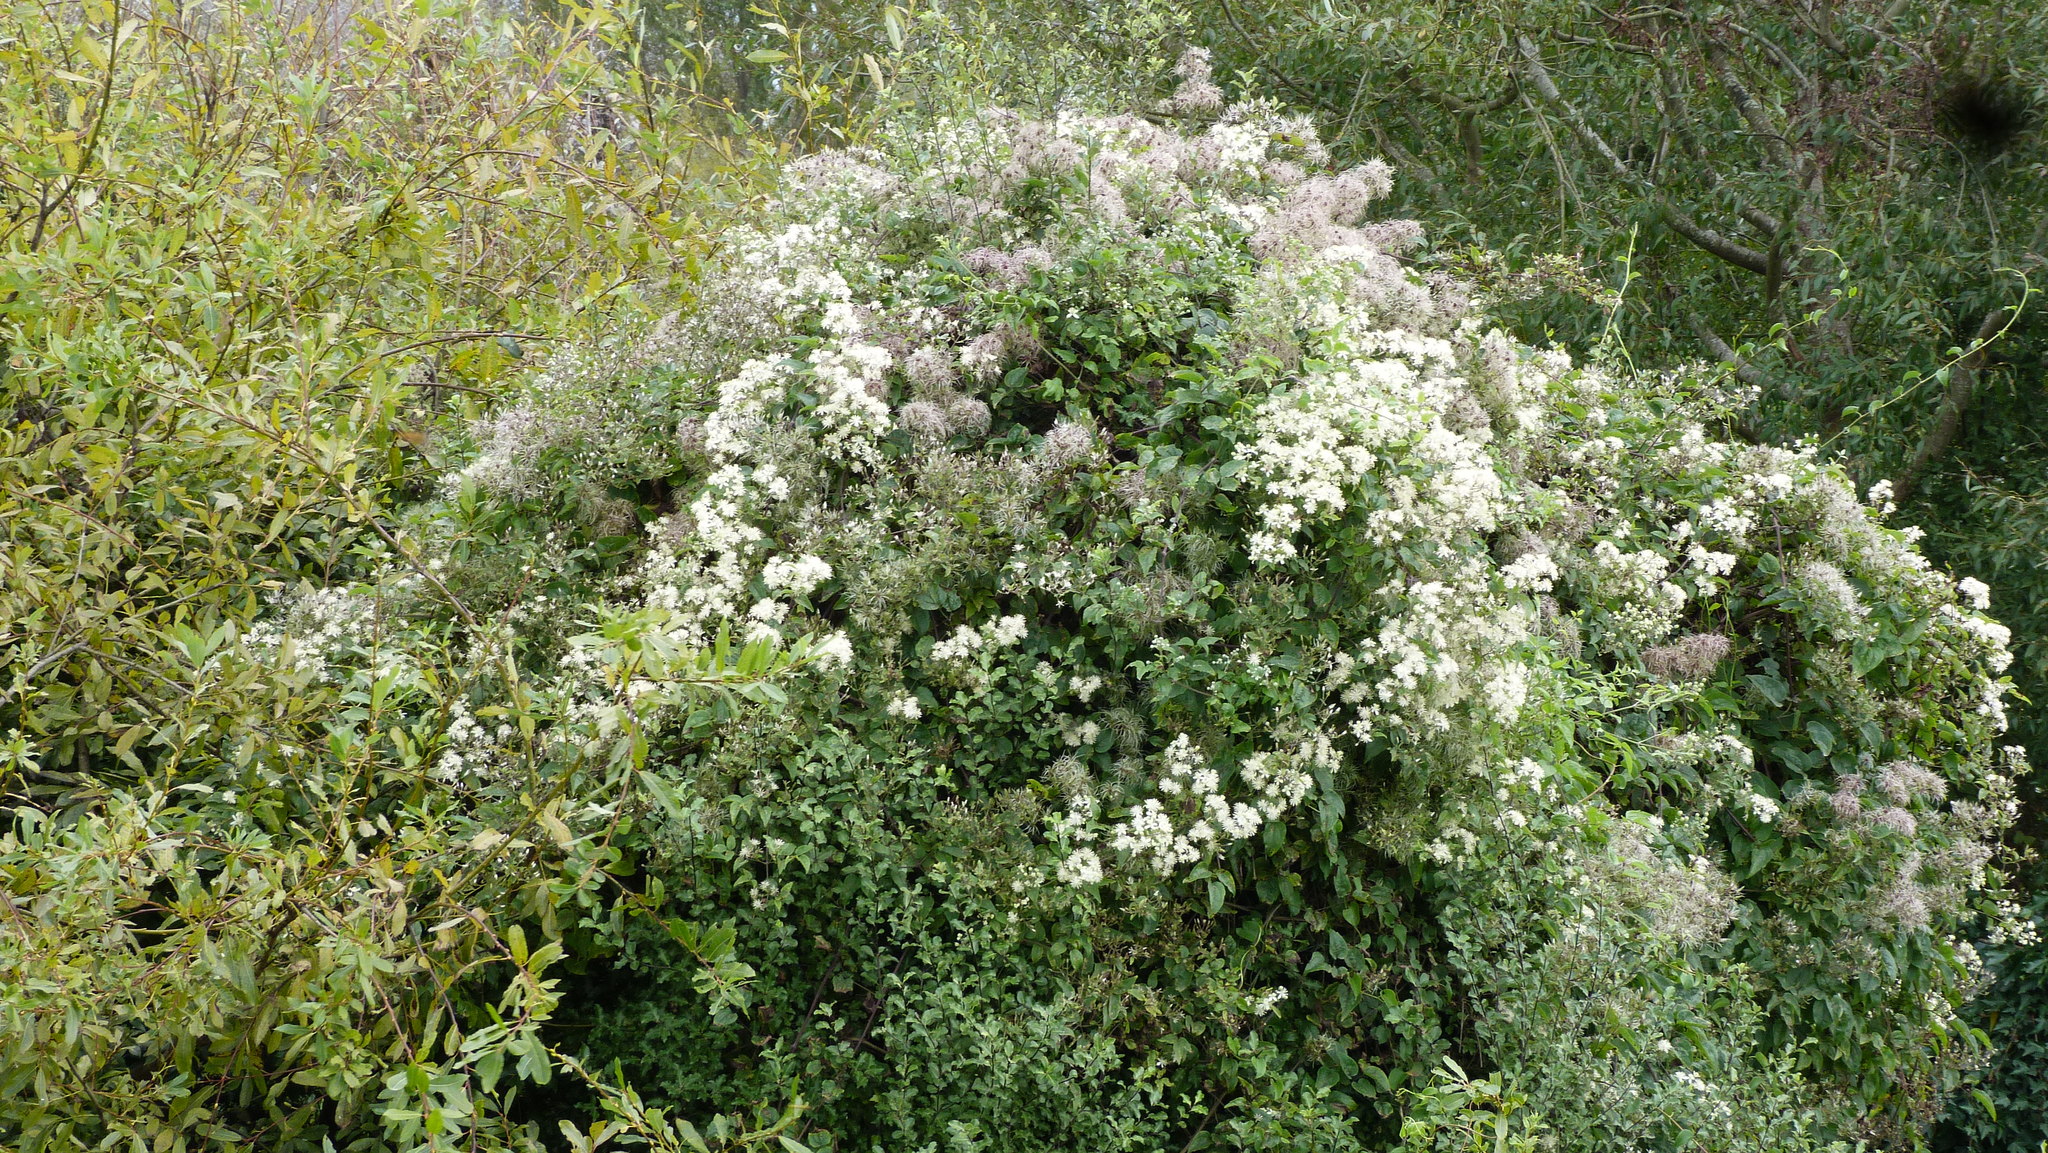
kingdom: Plantae
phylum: Tracheophyta
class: Magnoliopsida
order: Ranunculales
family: Ranunculaceae
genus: Clematis
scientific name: Clematis vitalba
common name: Evergreen clematis
